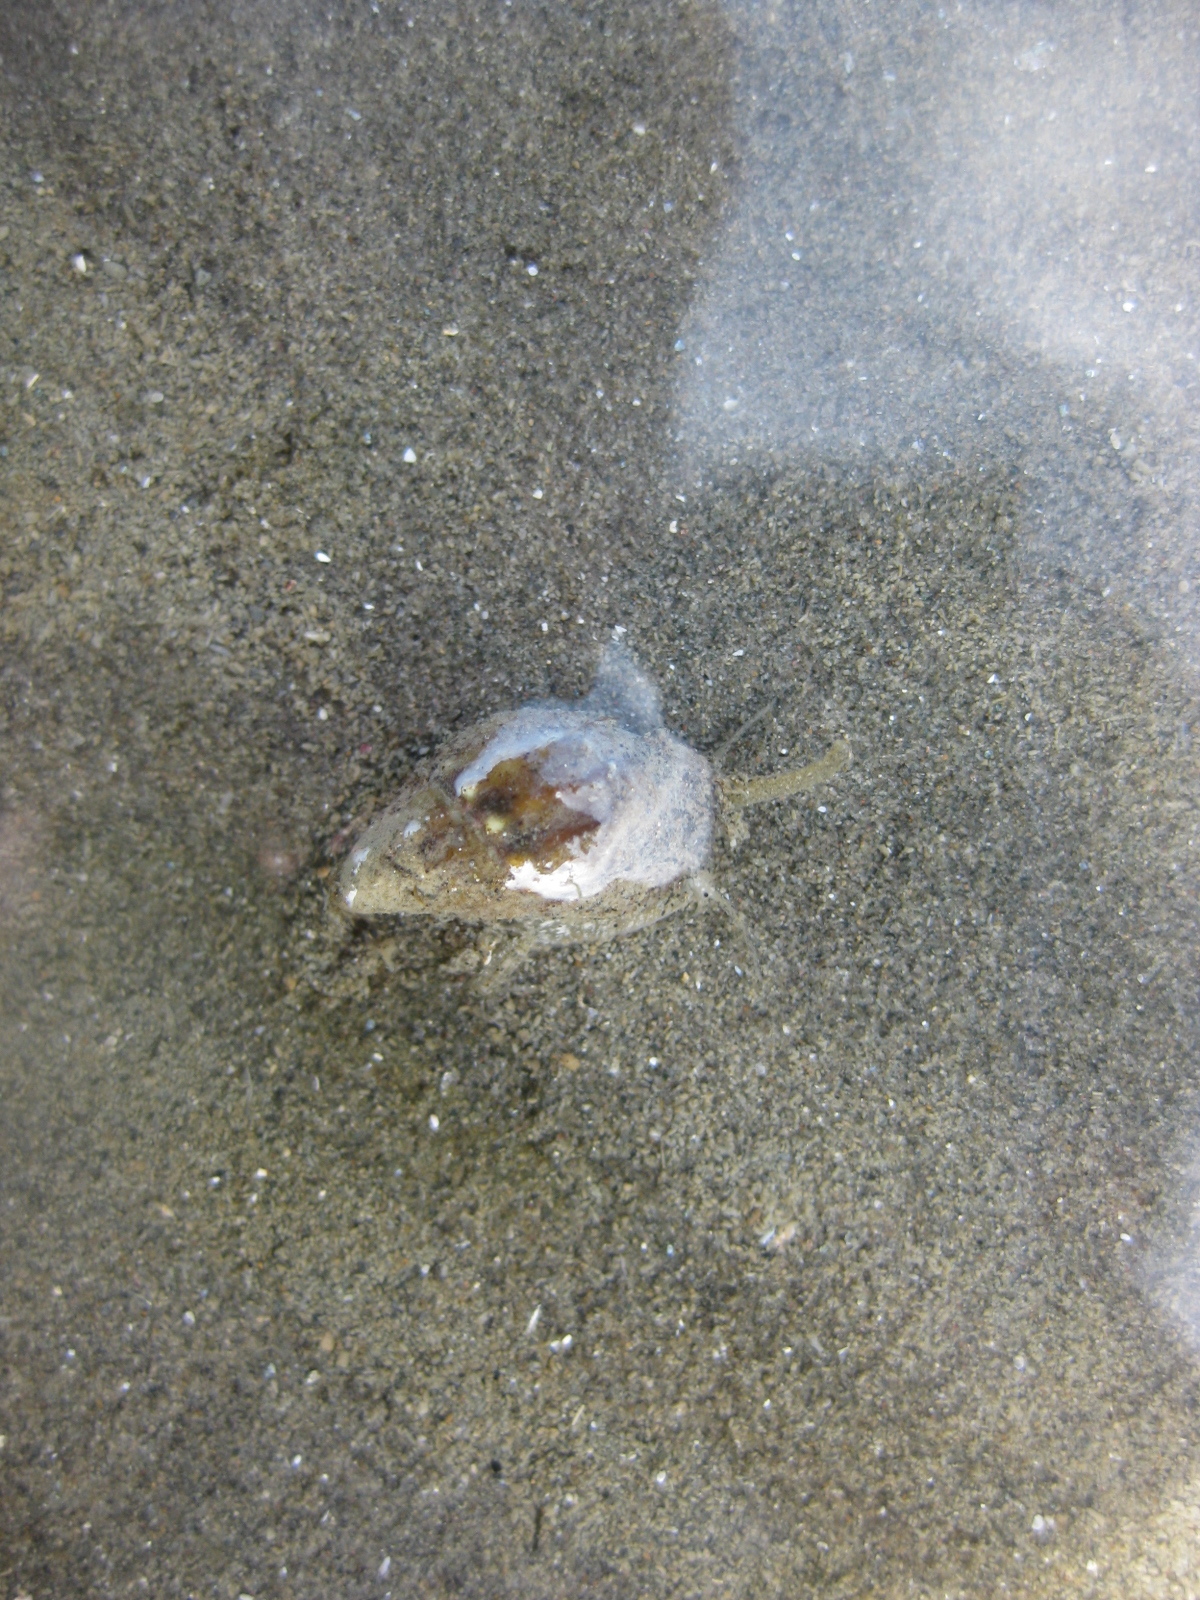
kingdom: Animalia
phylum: Mollusca
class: Gastropoda
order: Neogastropoda
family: Nassariidae
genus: Tritia
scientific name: Tritia burchardi
